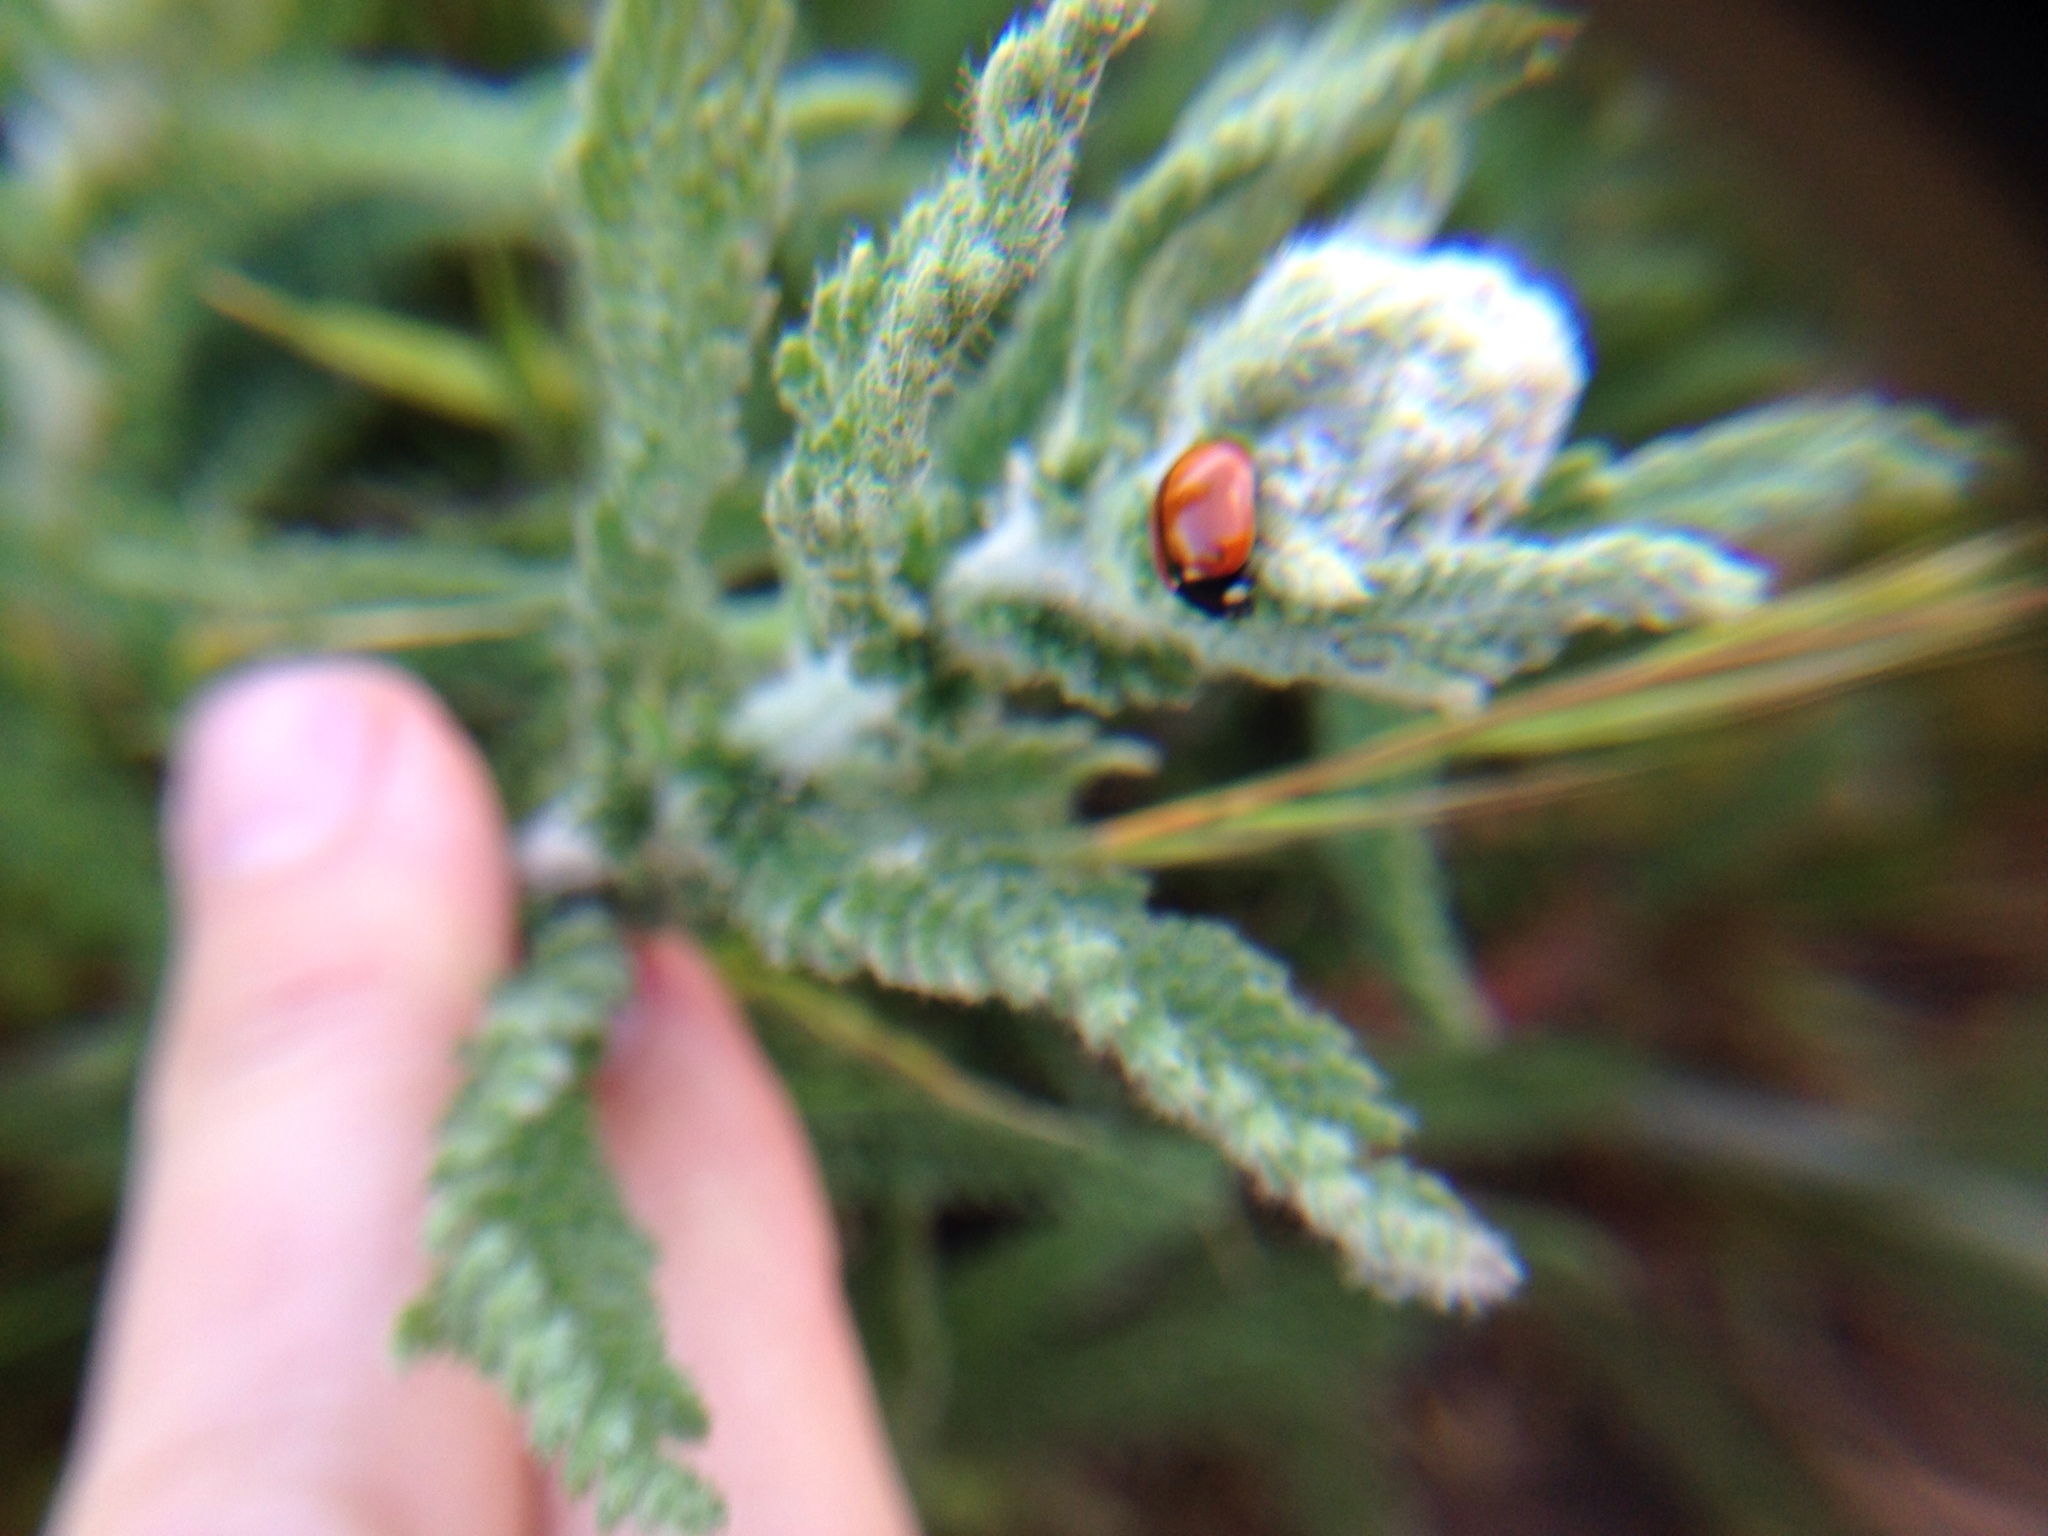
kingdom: Animalia
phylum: Arthropoda
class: Insecta
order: Coleoptera
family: Coccinellidae
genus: Coccinella
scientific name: Coccinella californica
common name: Lady beetle
